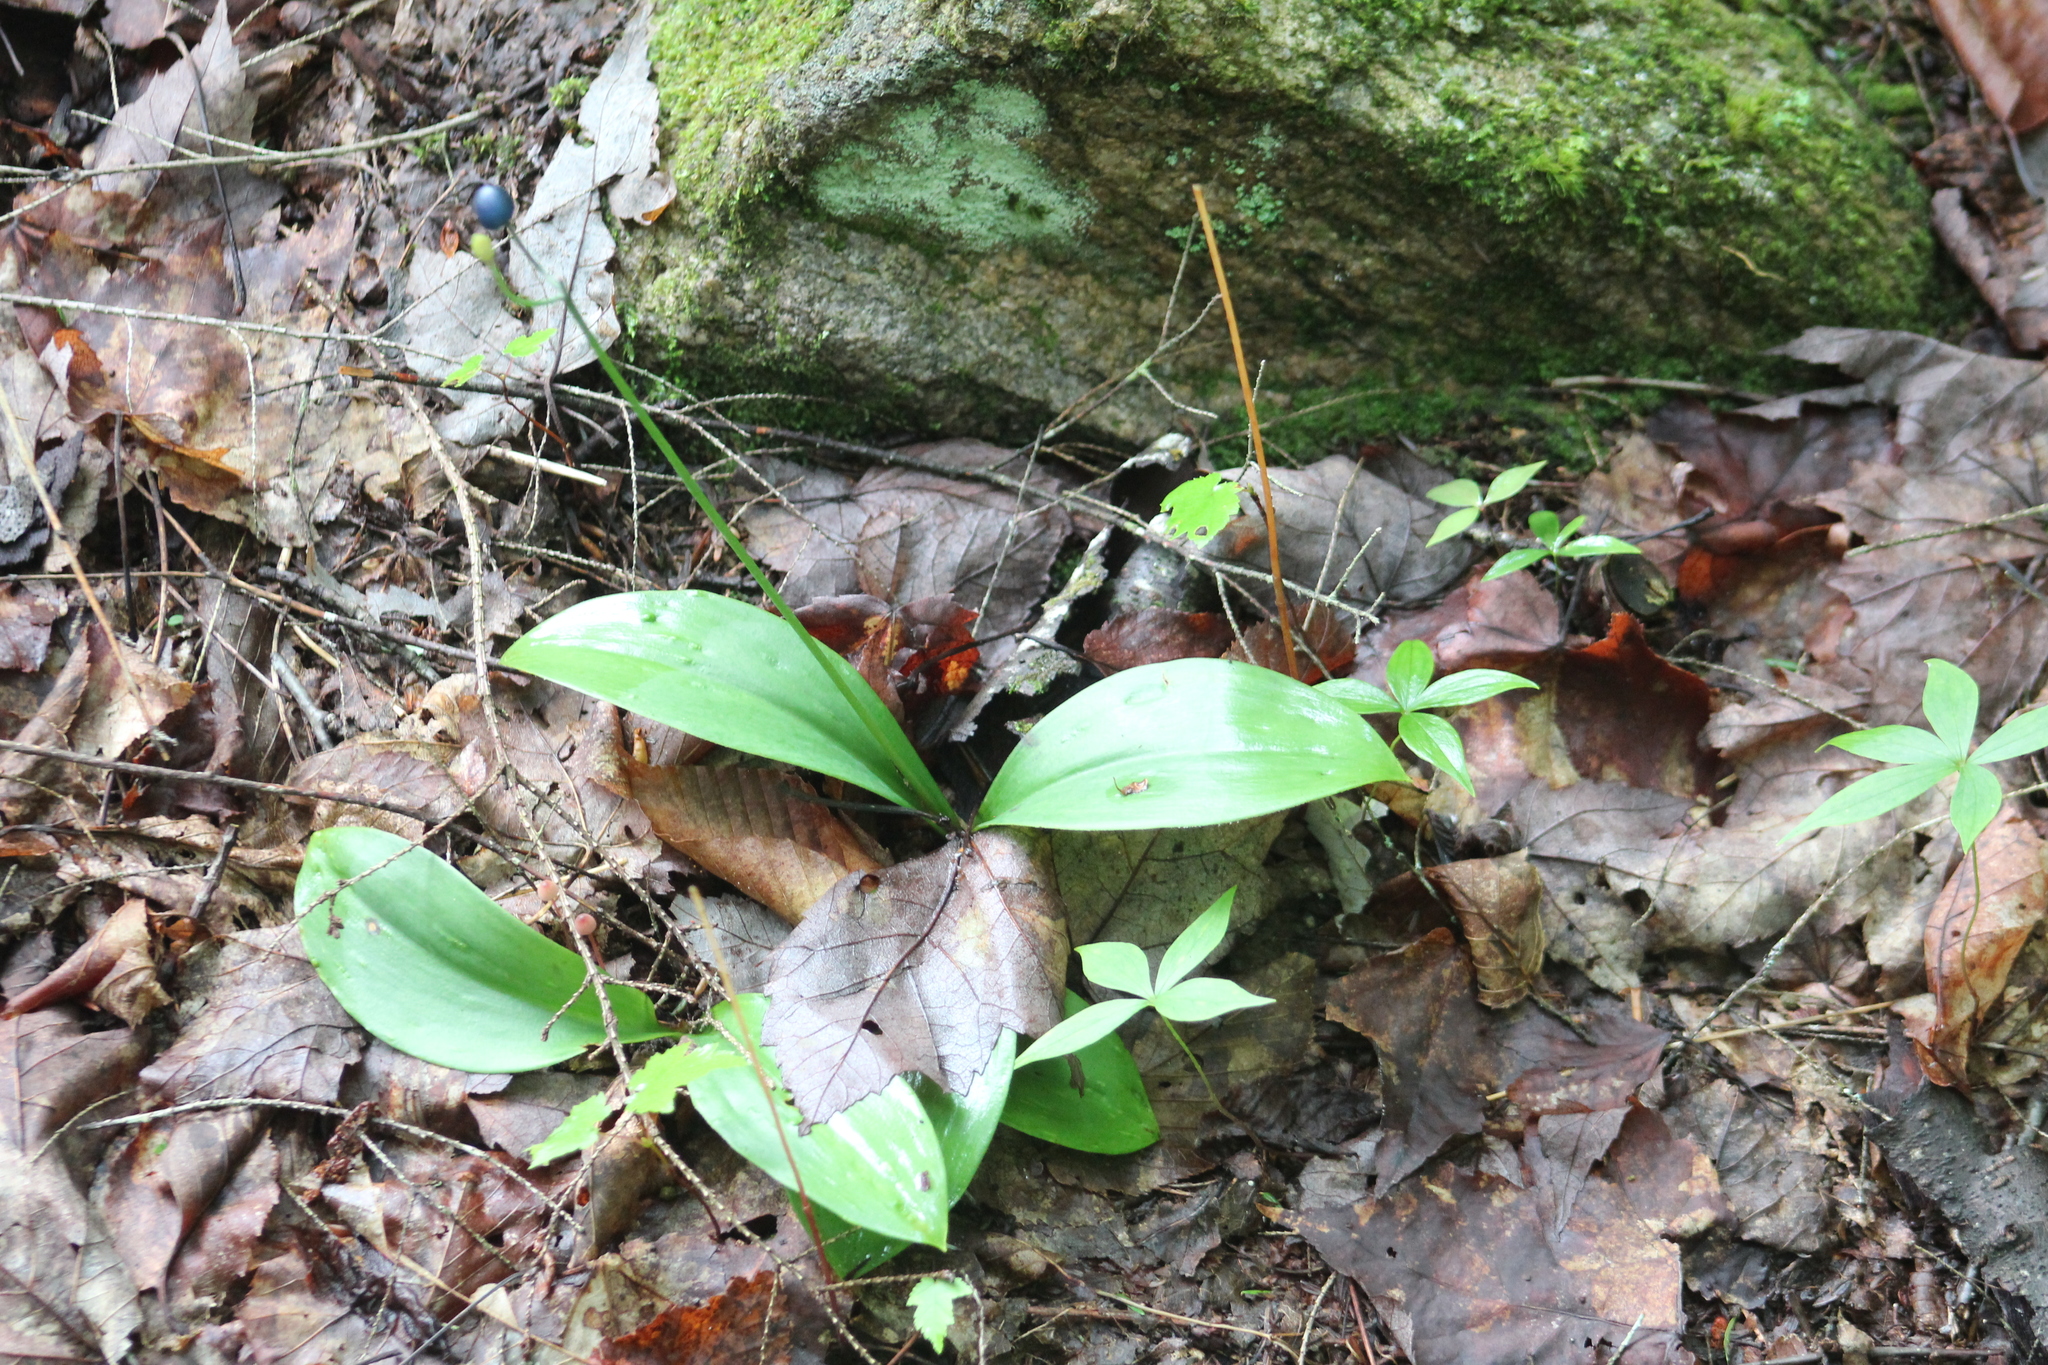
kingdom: Plantae
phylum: Tracheophyta
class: Liliopsida
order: Liliales
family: Liliaceae
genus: Clintonia
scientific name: Clintonia borealis
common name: Yellow clintonia
